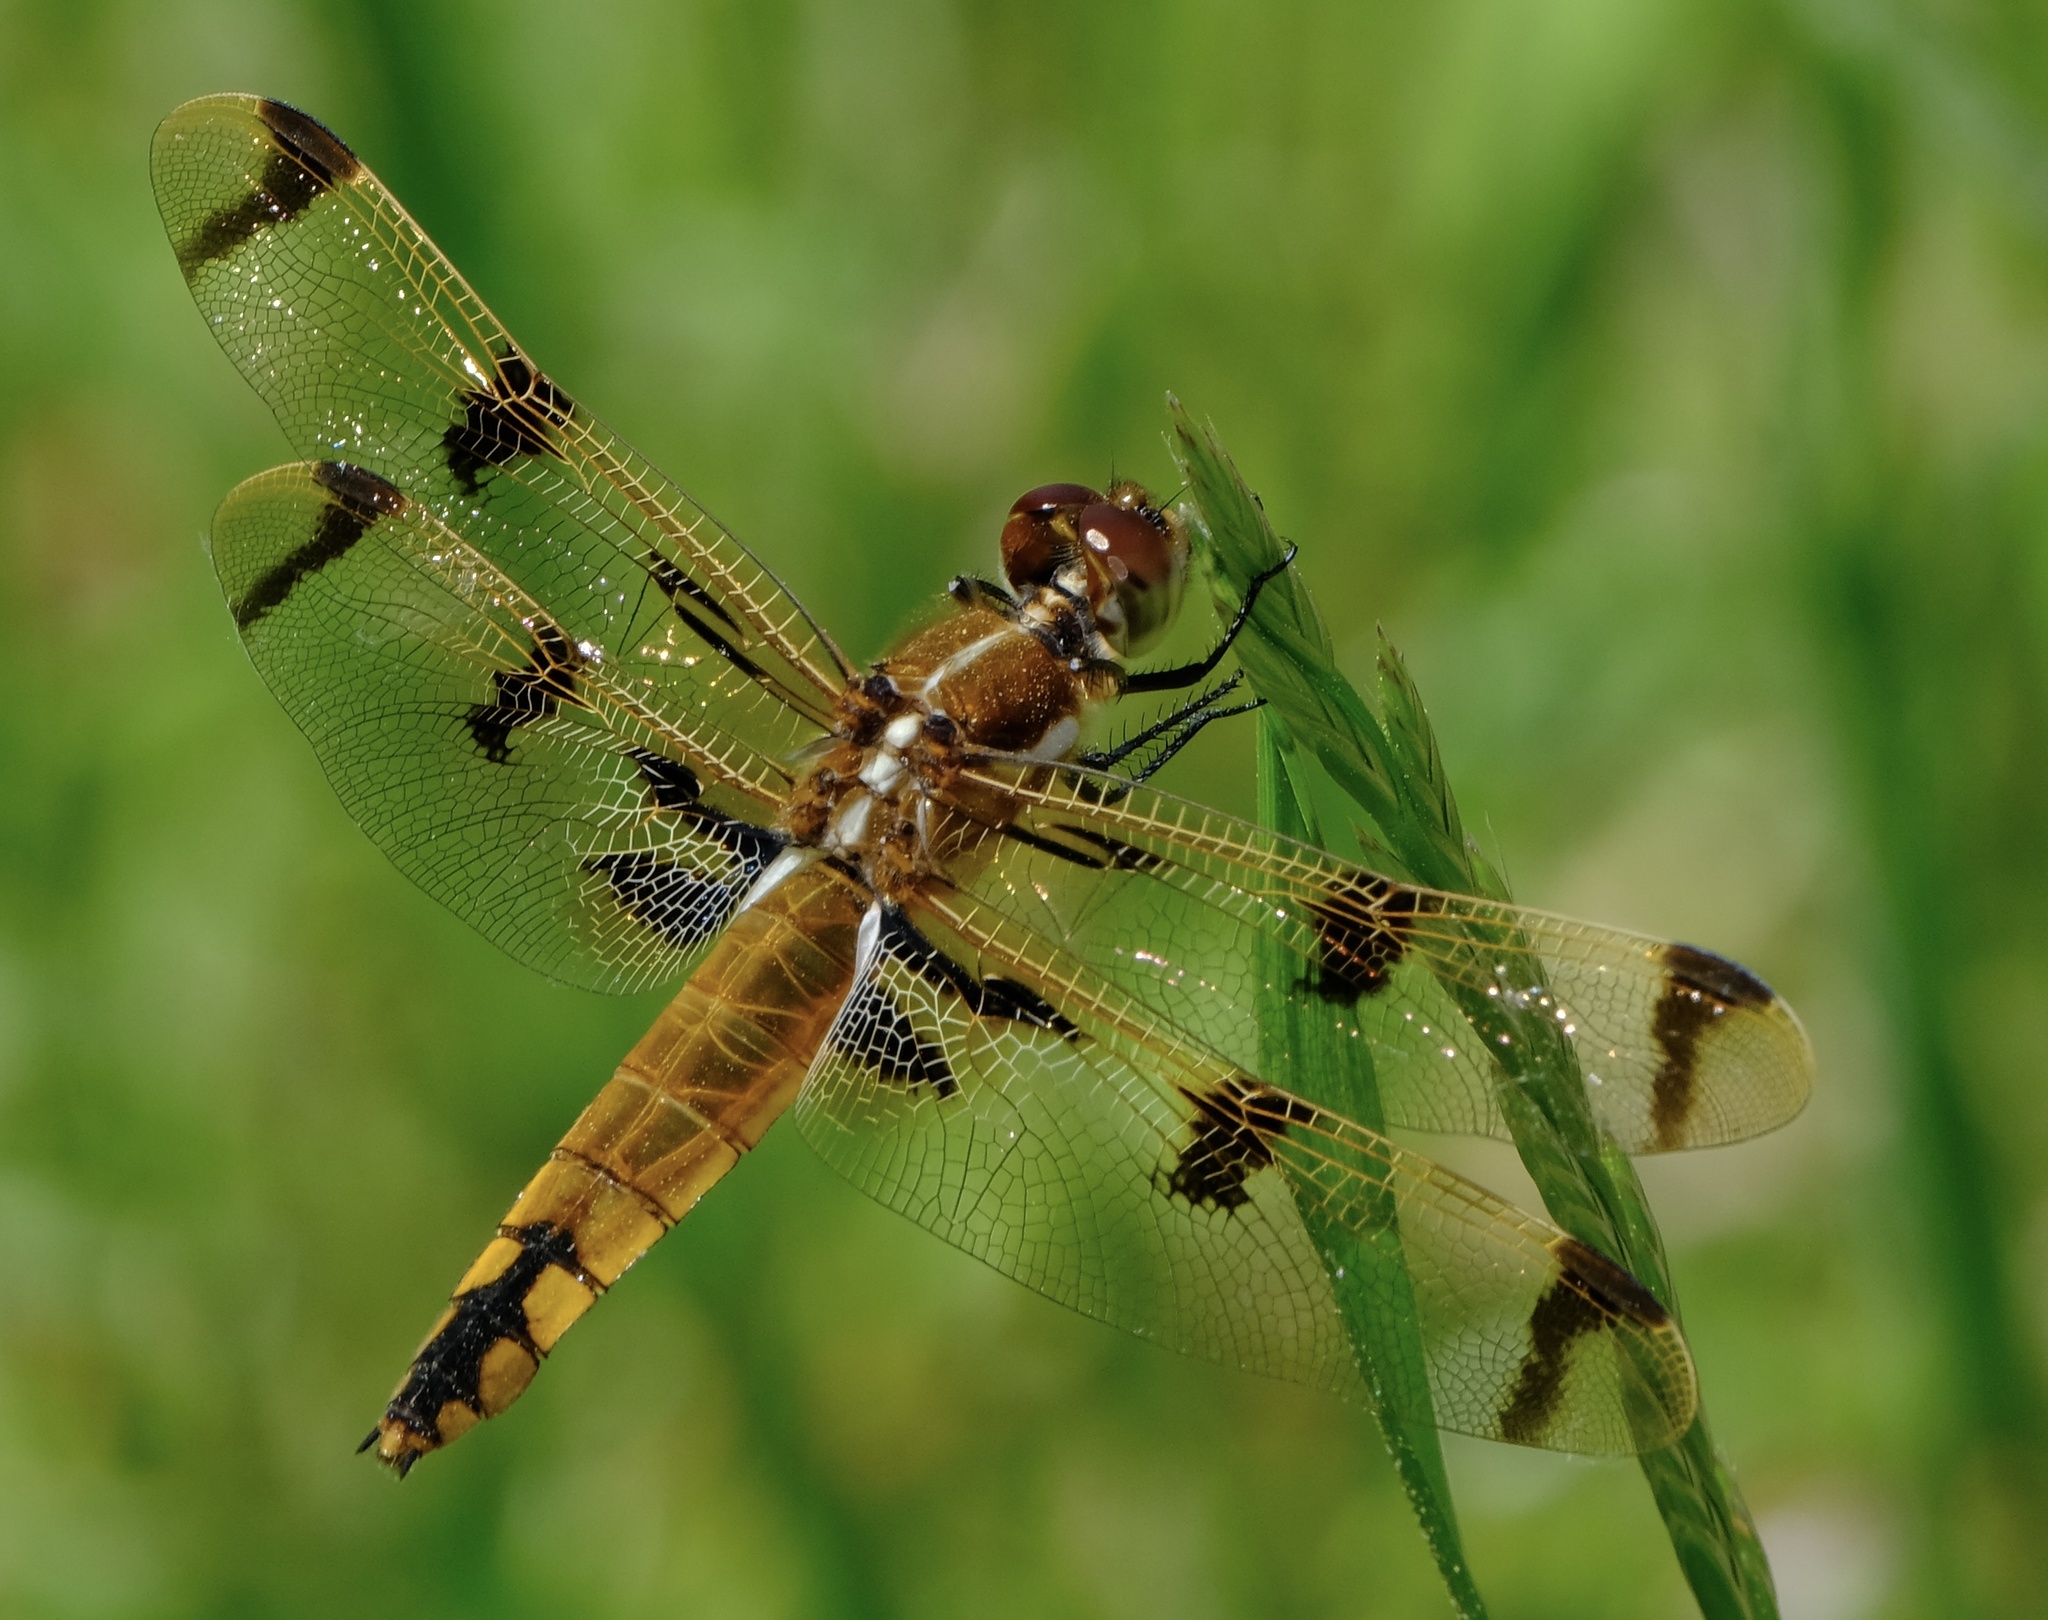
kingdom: Animalia
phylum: Arthropoda
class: Insecta
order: Odonata
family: Libellulidae
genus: Libellula
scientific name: Libellula semifasciata
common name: Painted skimmer
